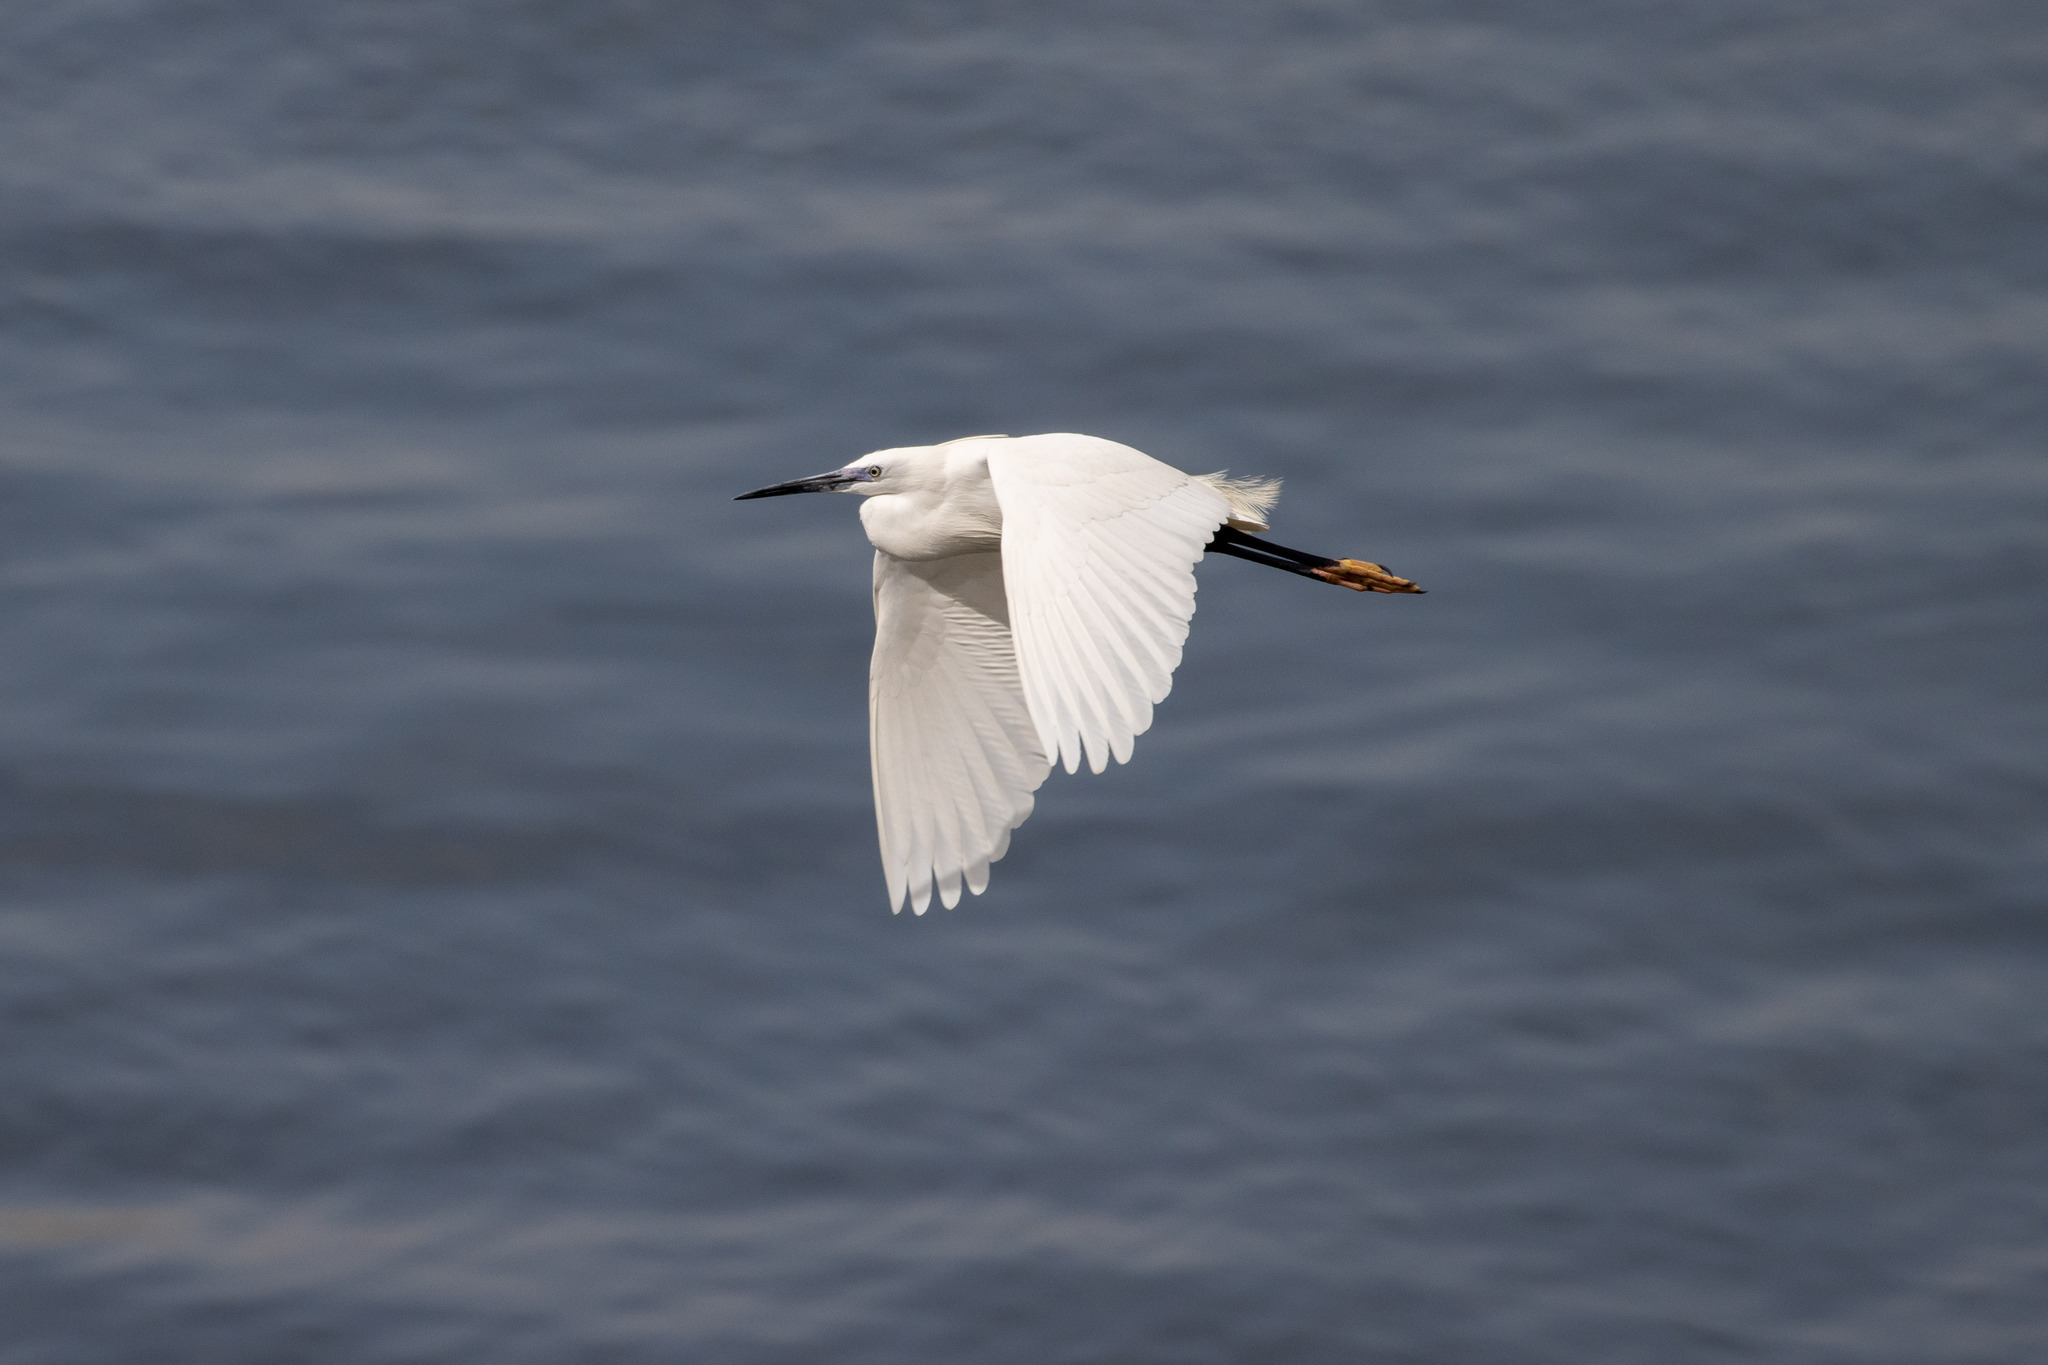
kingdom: Animalia
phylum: Chordata
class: Aves
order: Pelecaniformes
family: Ardeidae
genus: Egretta
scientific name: Egretta garzetta
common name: Little egret
